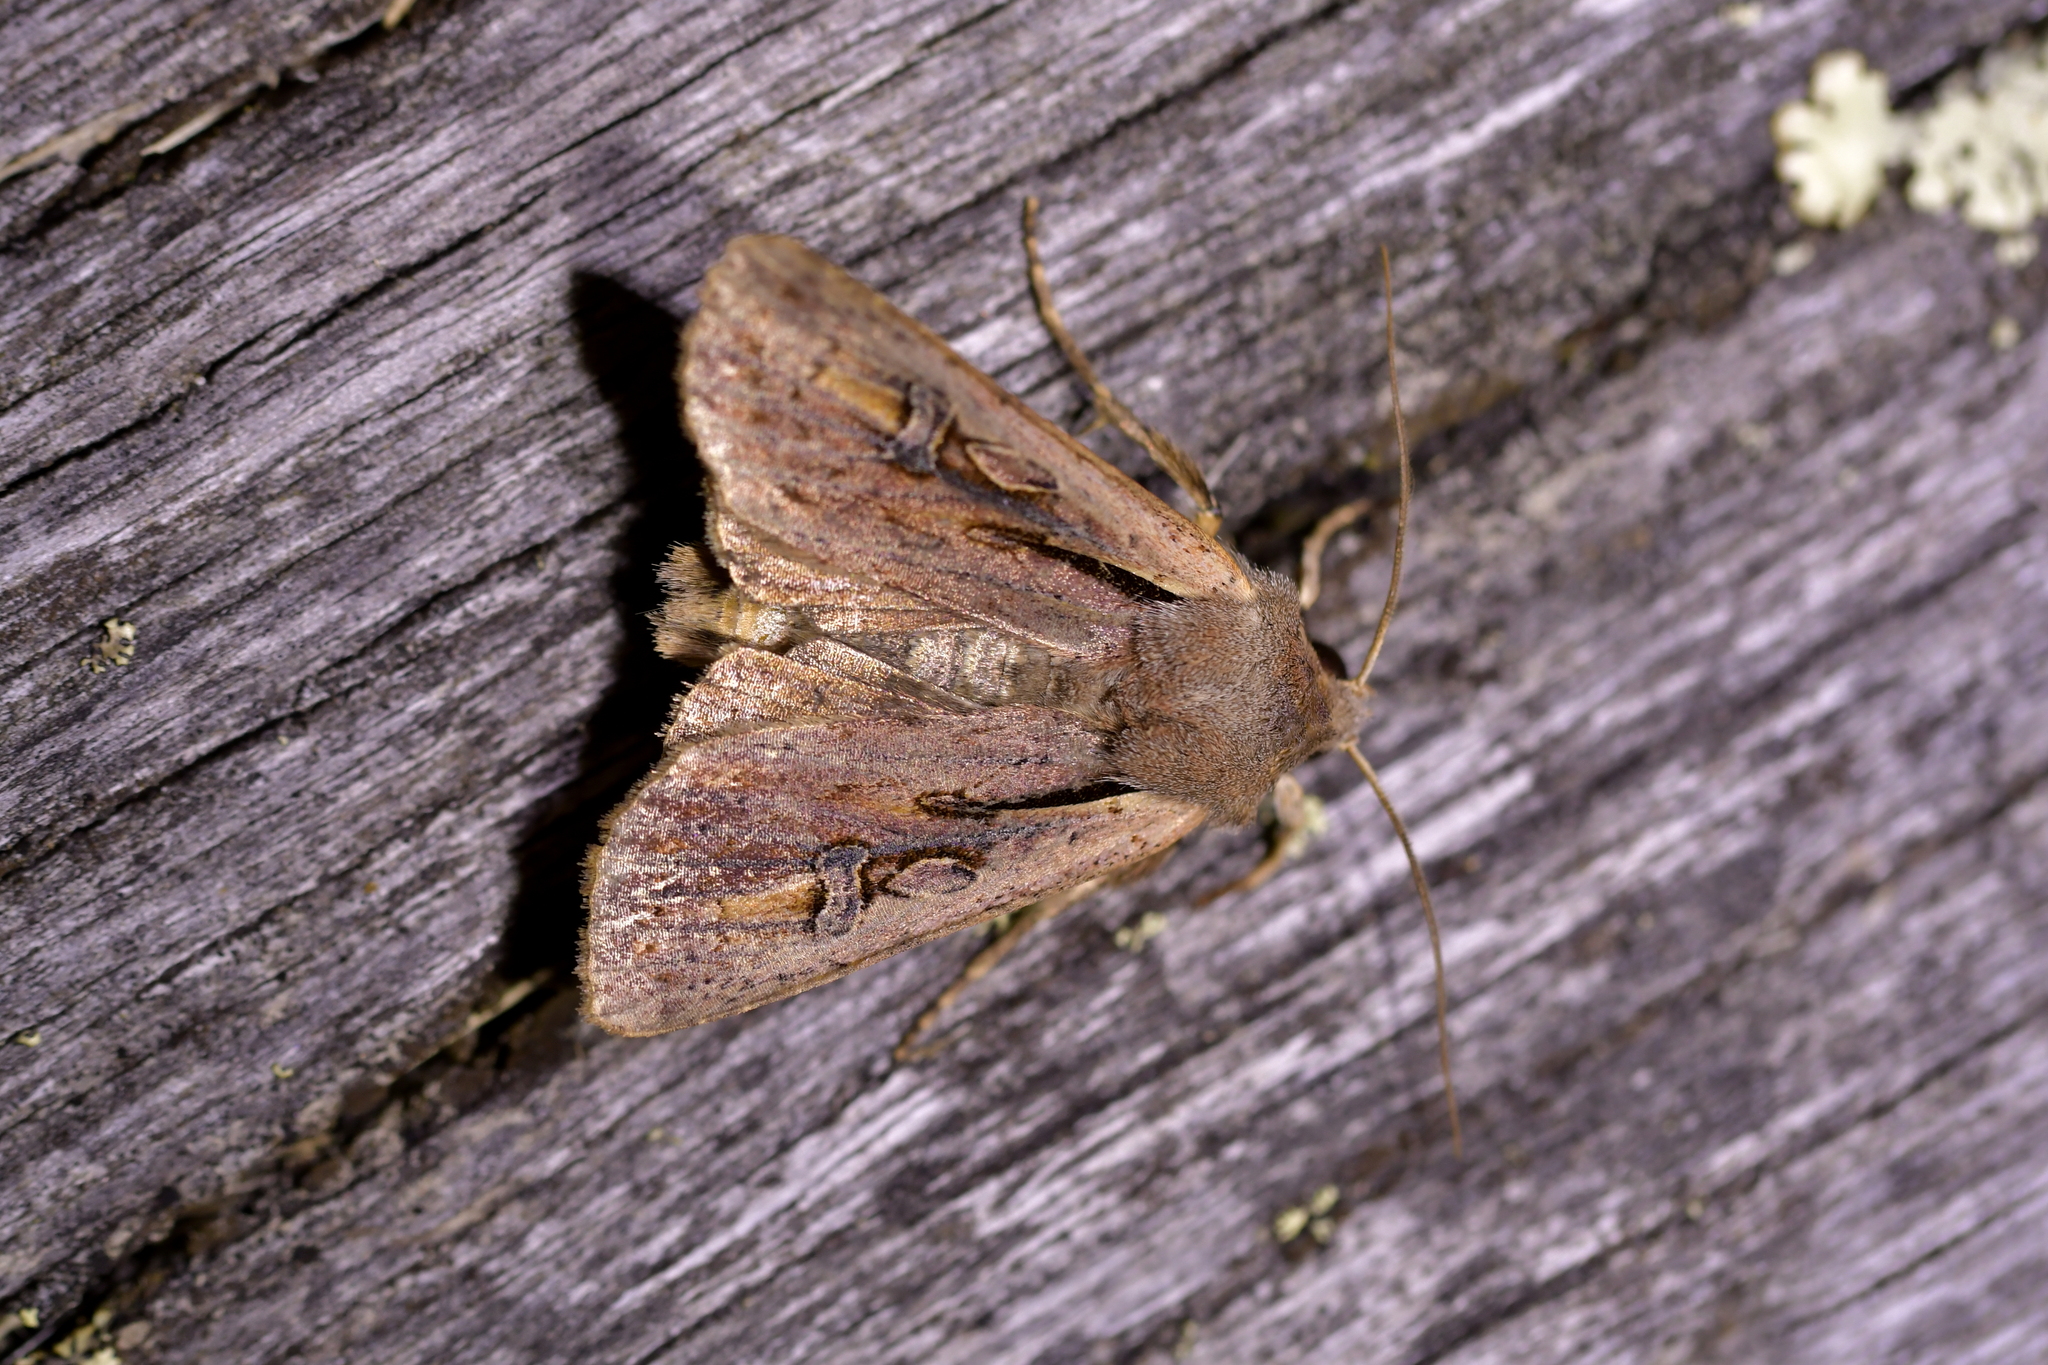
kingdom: Animalia
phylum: Arthropoda
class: Insecta
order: Lepidoptera
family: Noctuidae
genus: Ichneutica
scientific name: Ichneutica atristriga
